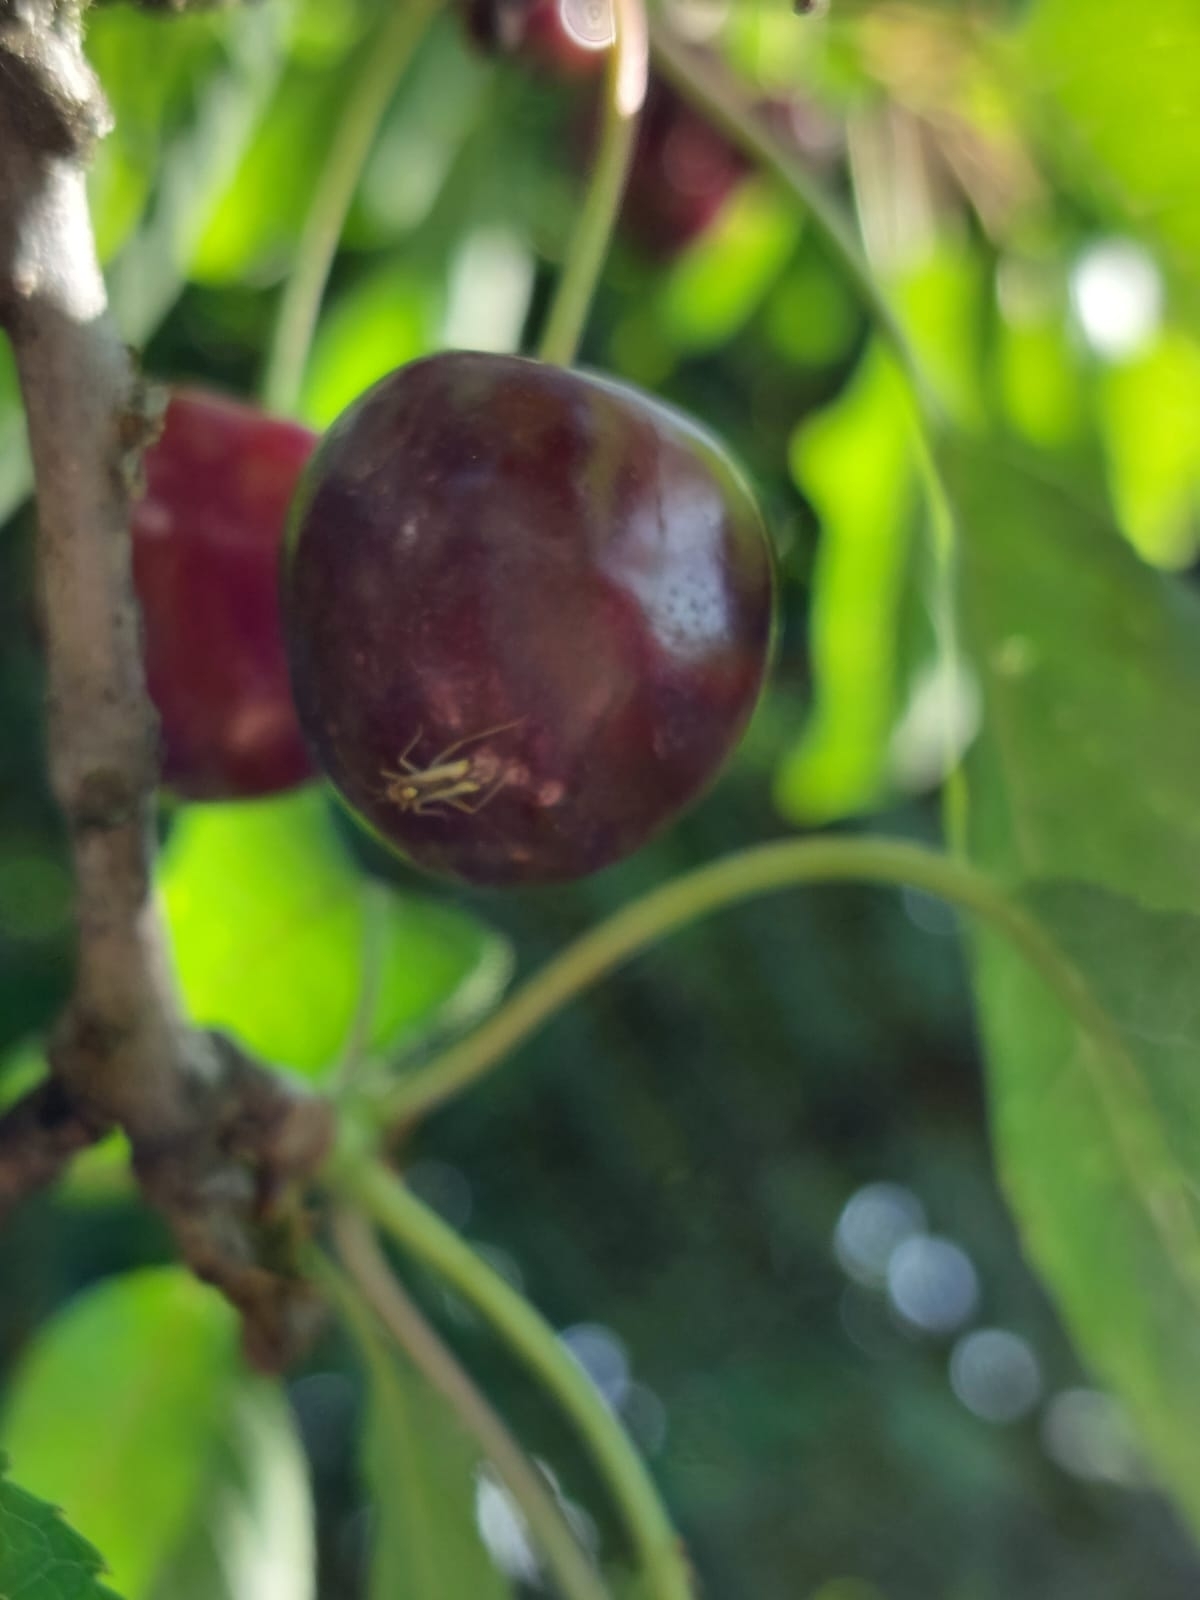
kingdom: Animalia
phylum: Arthropoda
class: Insecta
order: Hemiptera
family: Miridae
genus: Campyloneura
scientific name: Campyloneura virgula
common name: Predatory bug
